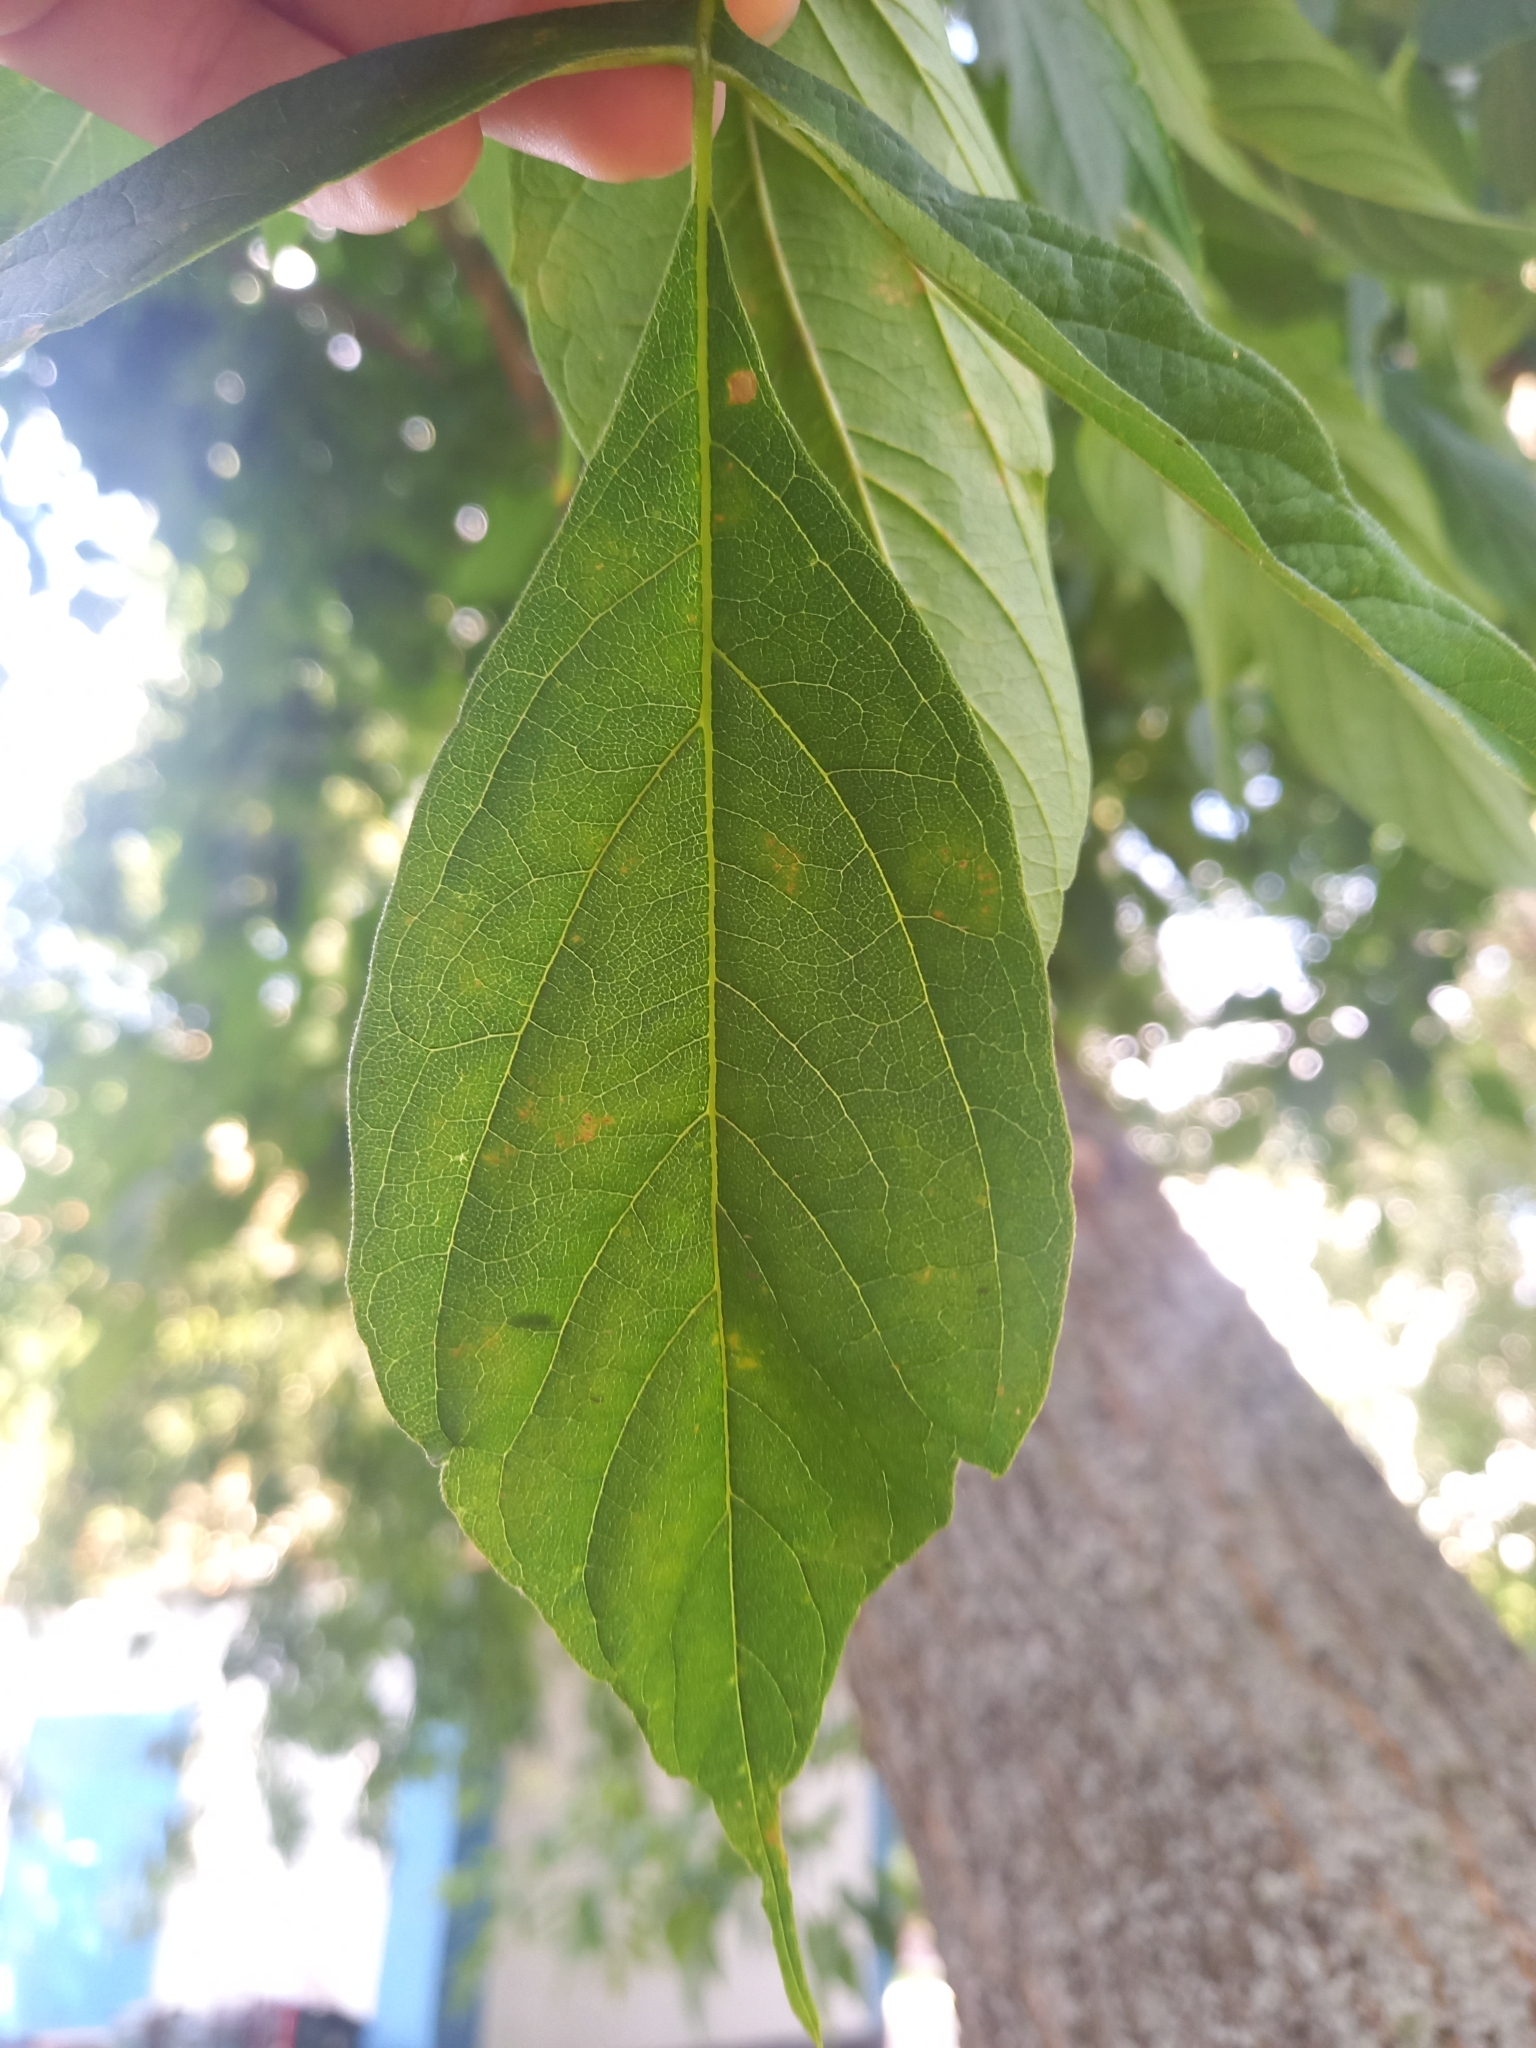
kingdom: Plantae
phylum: Tracheophyta
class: Magnoliopsida
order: Sapindales
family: Sapindaceae
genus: Acer
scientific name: Acer negundo
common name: Ashleaf maple
